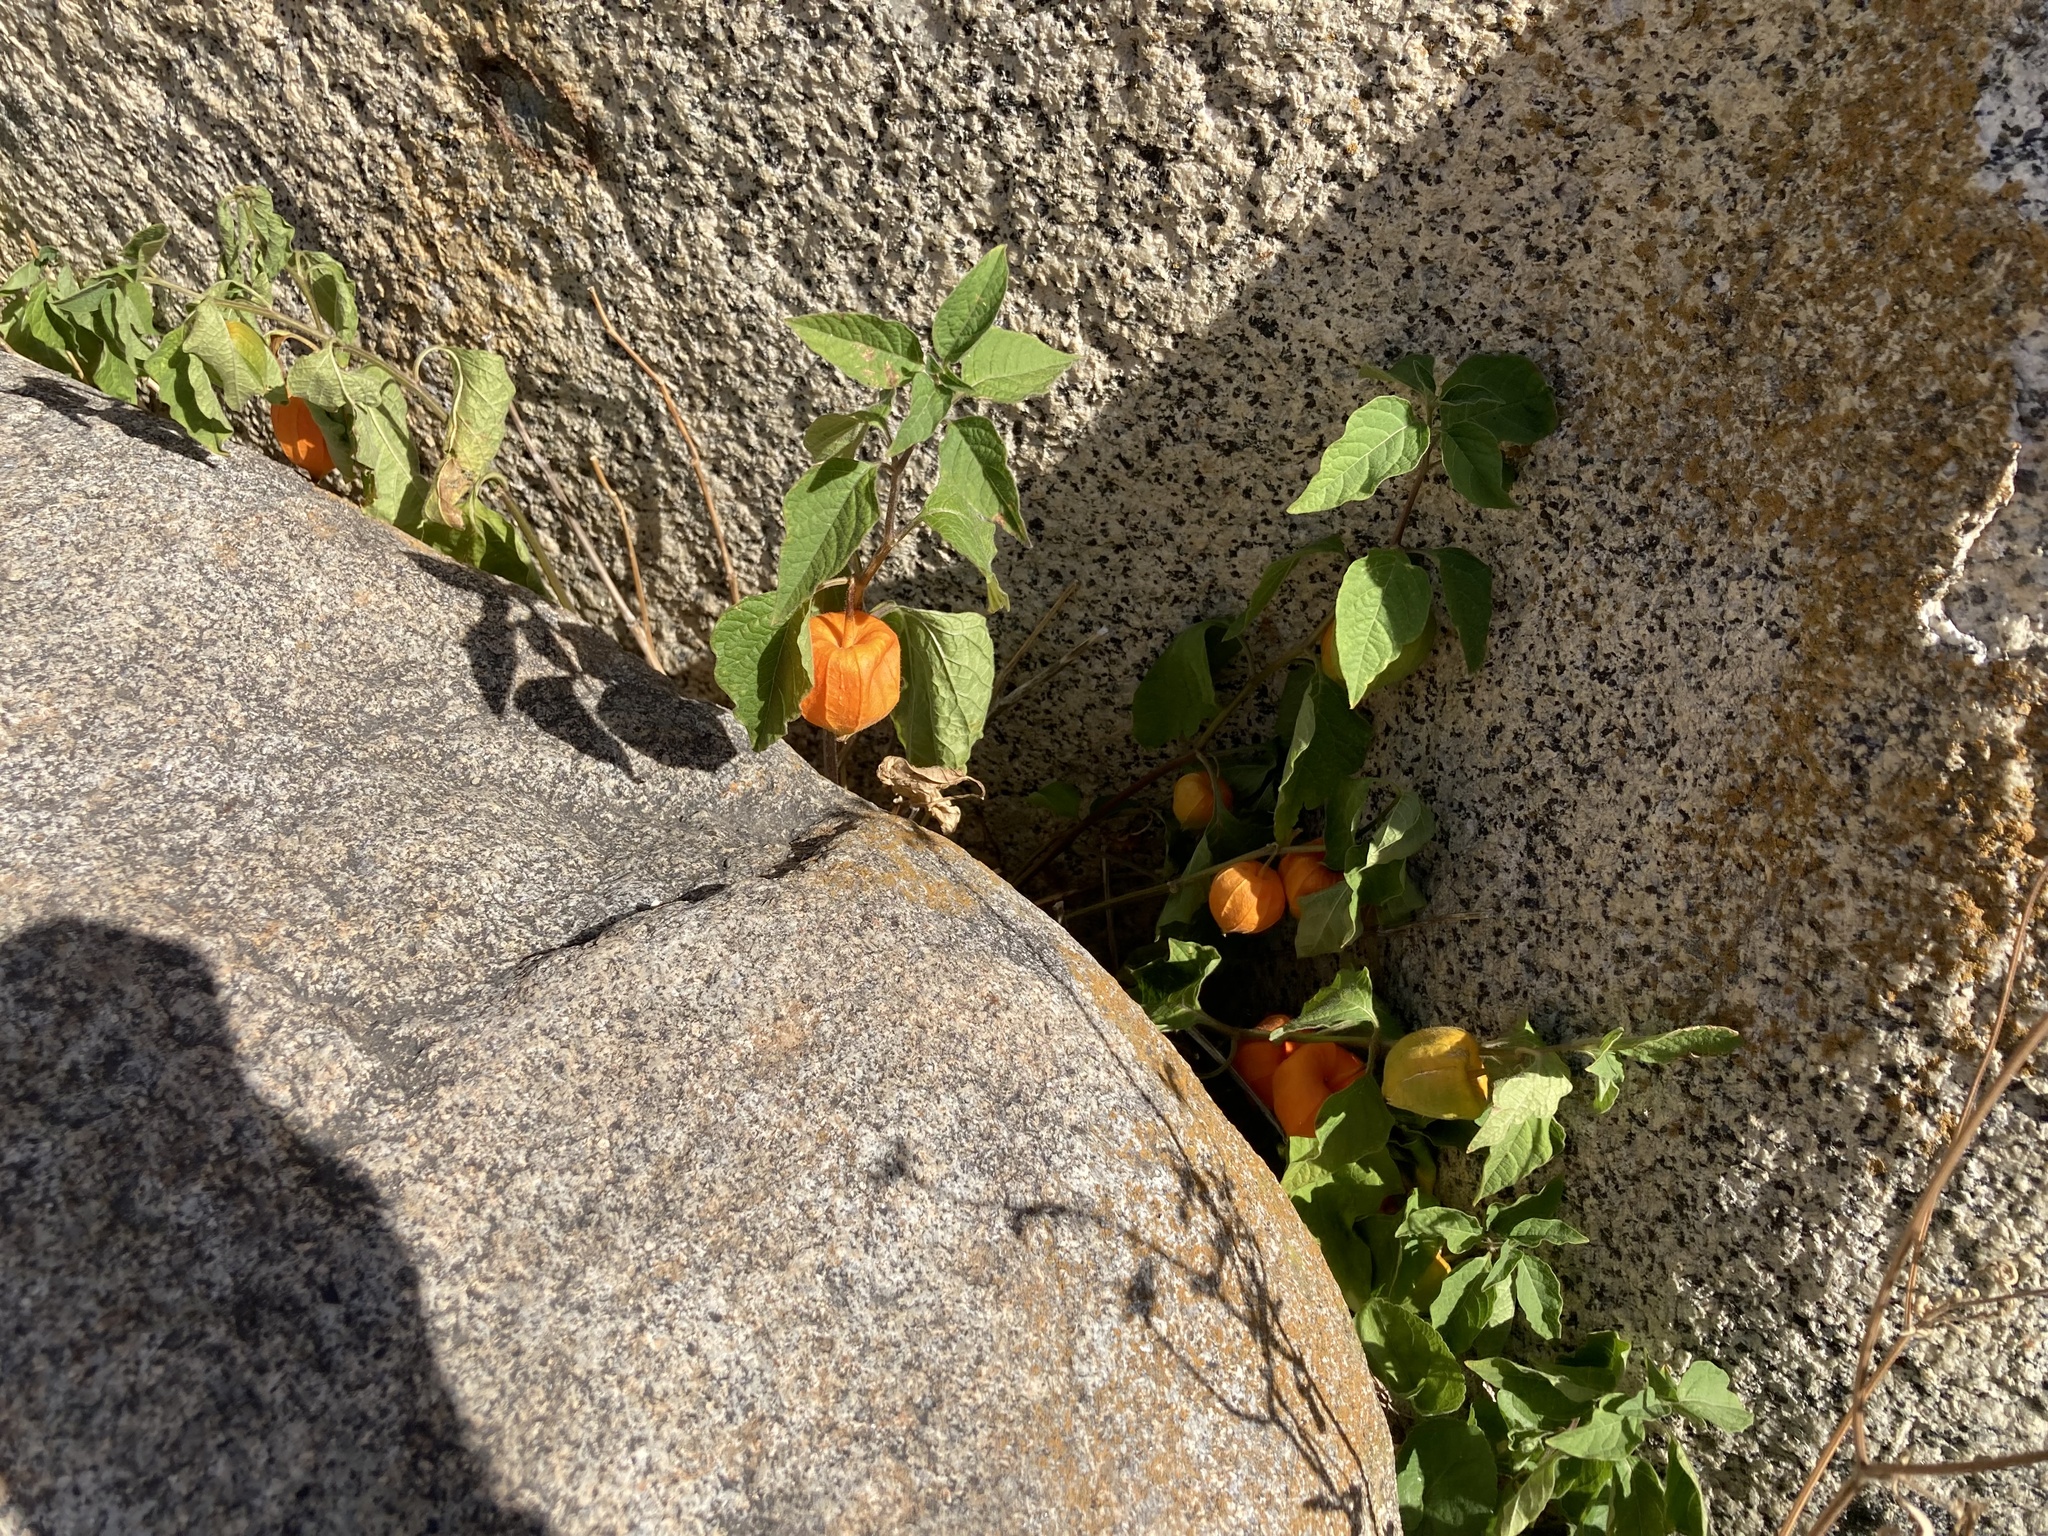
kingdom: Plantae
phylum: Tracheophyta
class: Magnoliopsida
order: Solanales
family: Solanaceae
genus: Alkekengi
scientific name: Alkekengi officinarum
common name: Japanese-lantern
